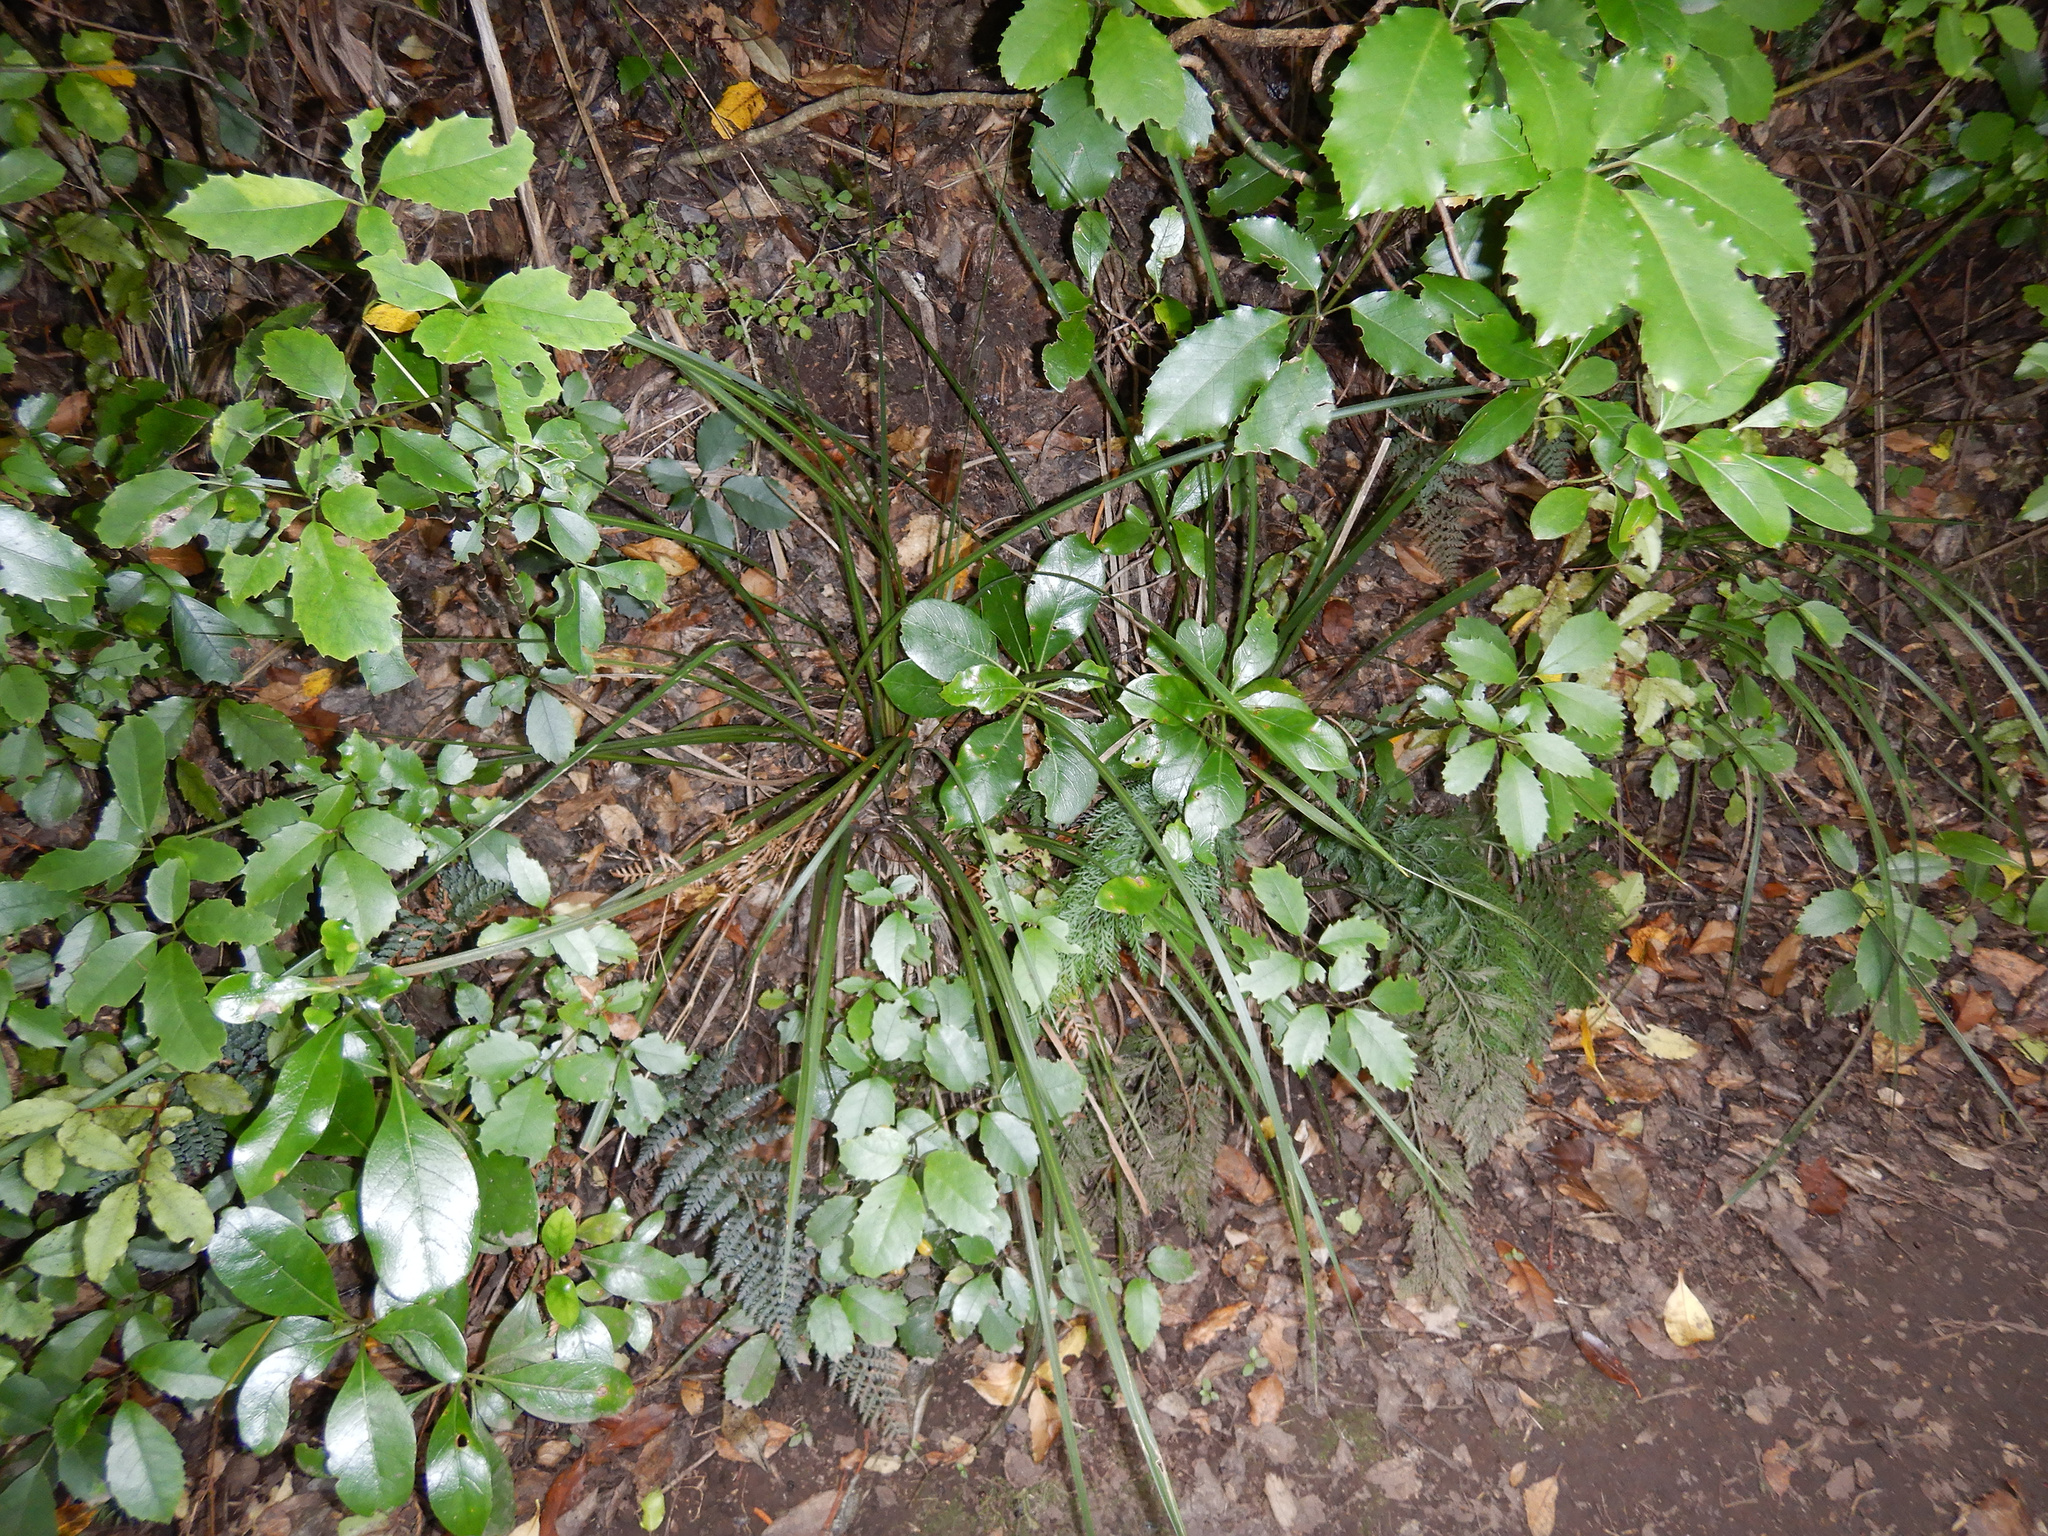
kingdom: Plantae
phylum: Tracheophyta
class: Liliopsida
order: Asparagales
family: Iridaceae
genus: Libertia
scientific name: Libertia ixioides
